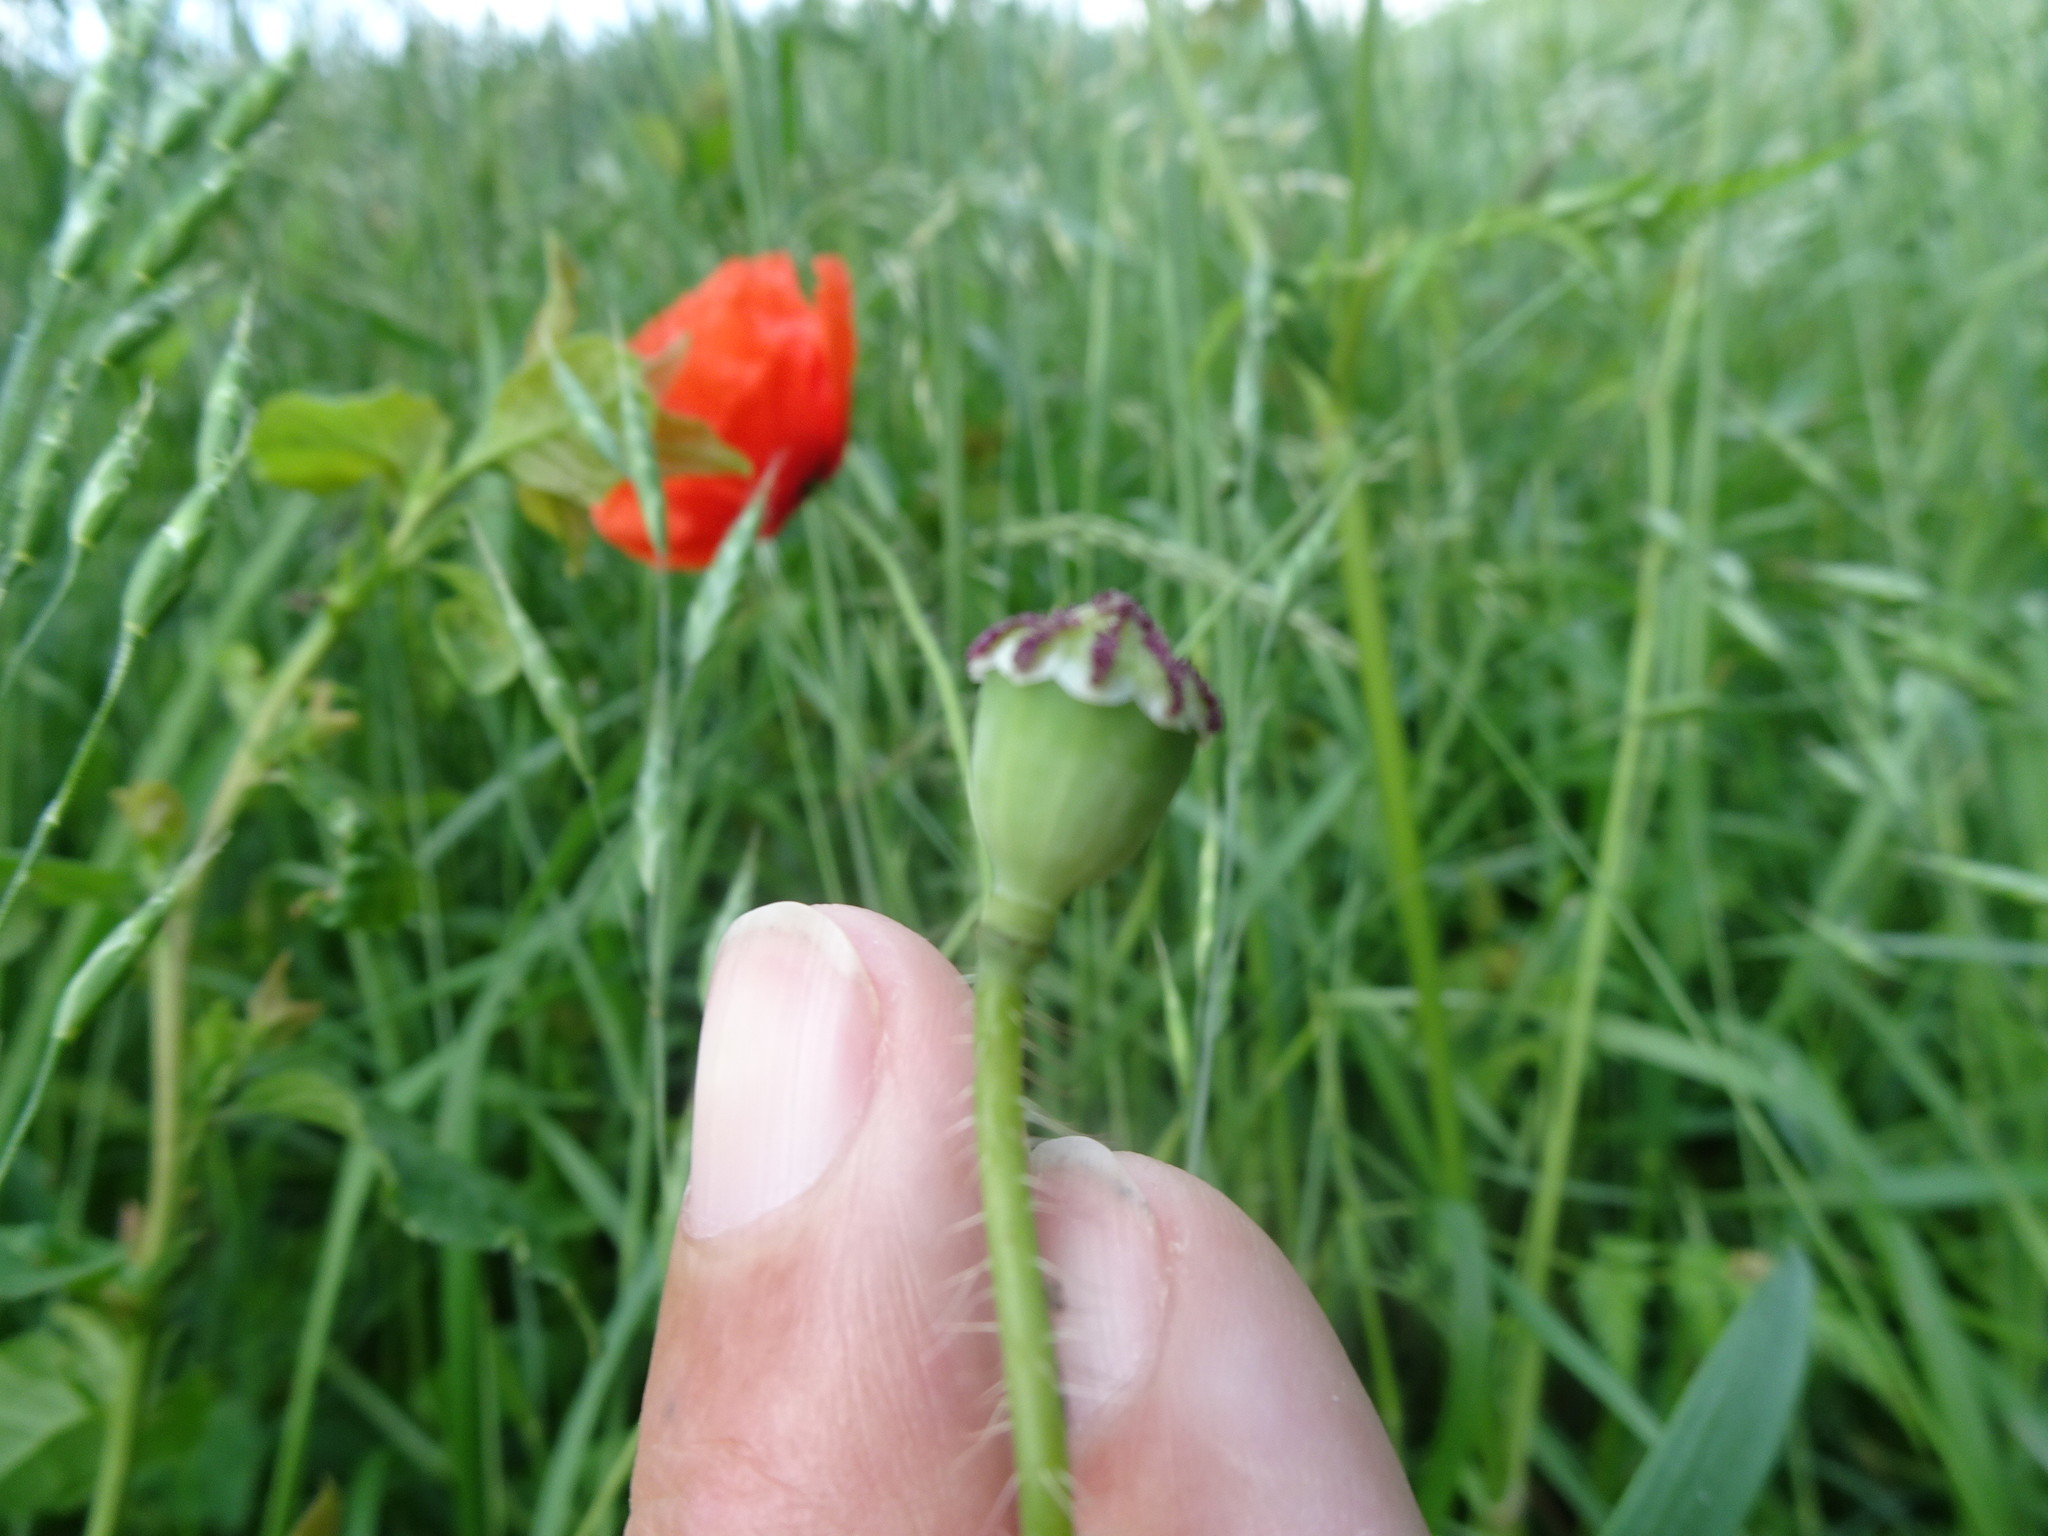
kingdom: Plantae
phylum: Tracheophyta
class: Magnoliopsida
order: Ranunculales
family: Papaveraceae
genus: Papaver
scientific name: Papaver rhoeas
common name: Corn poppy
